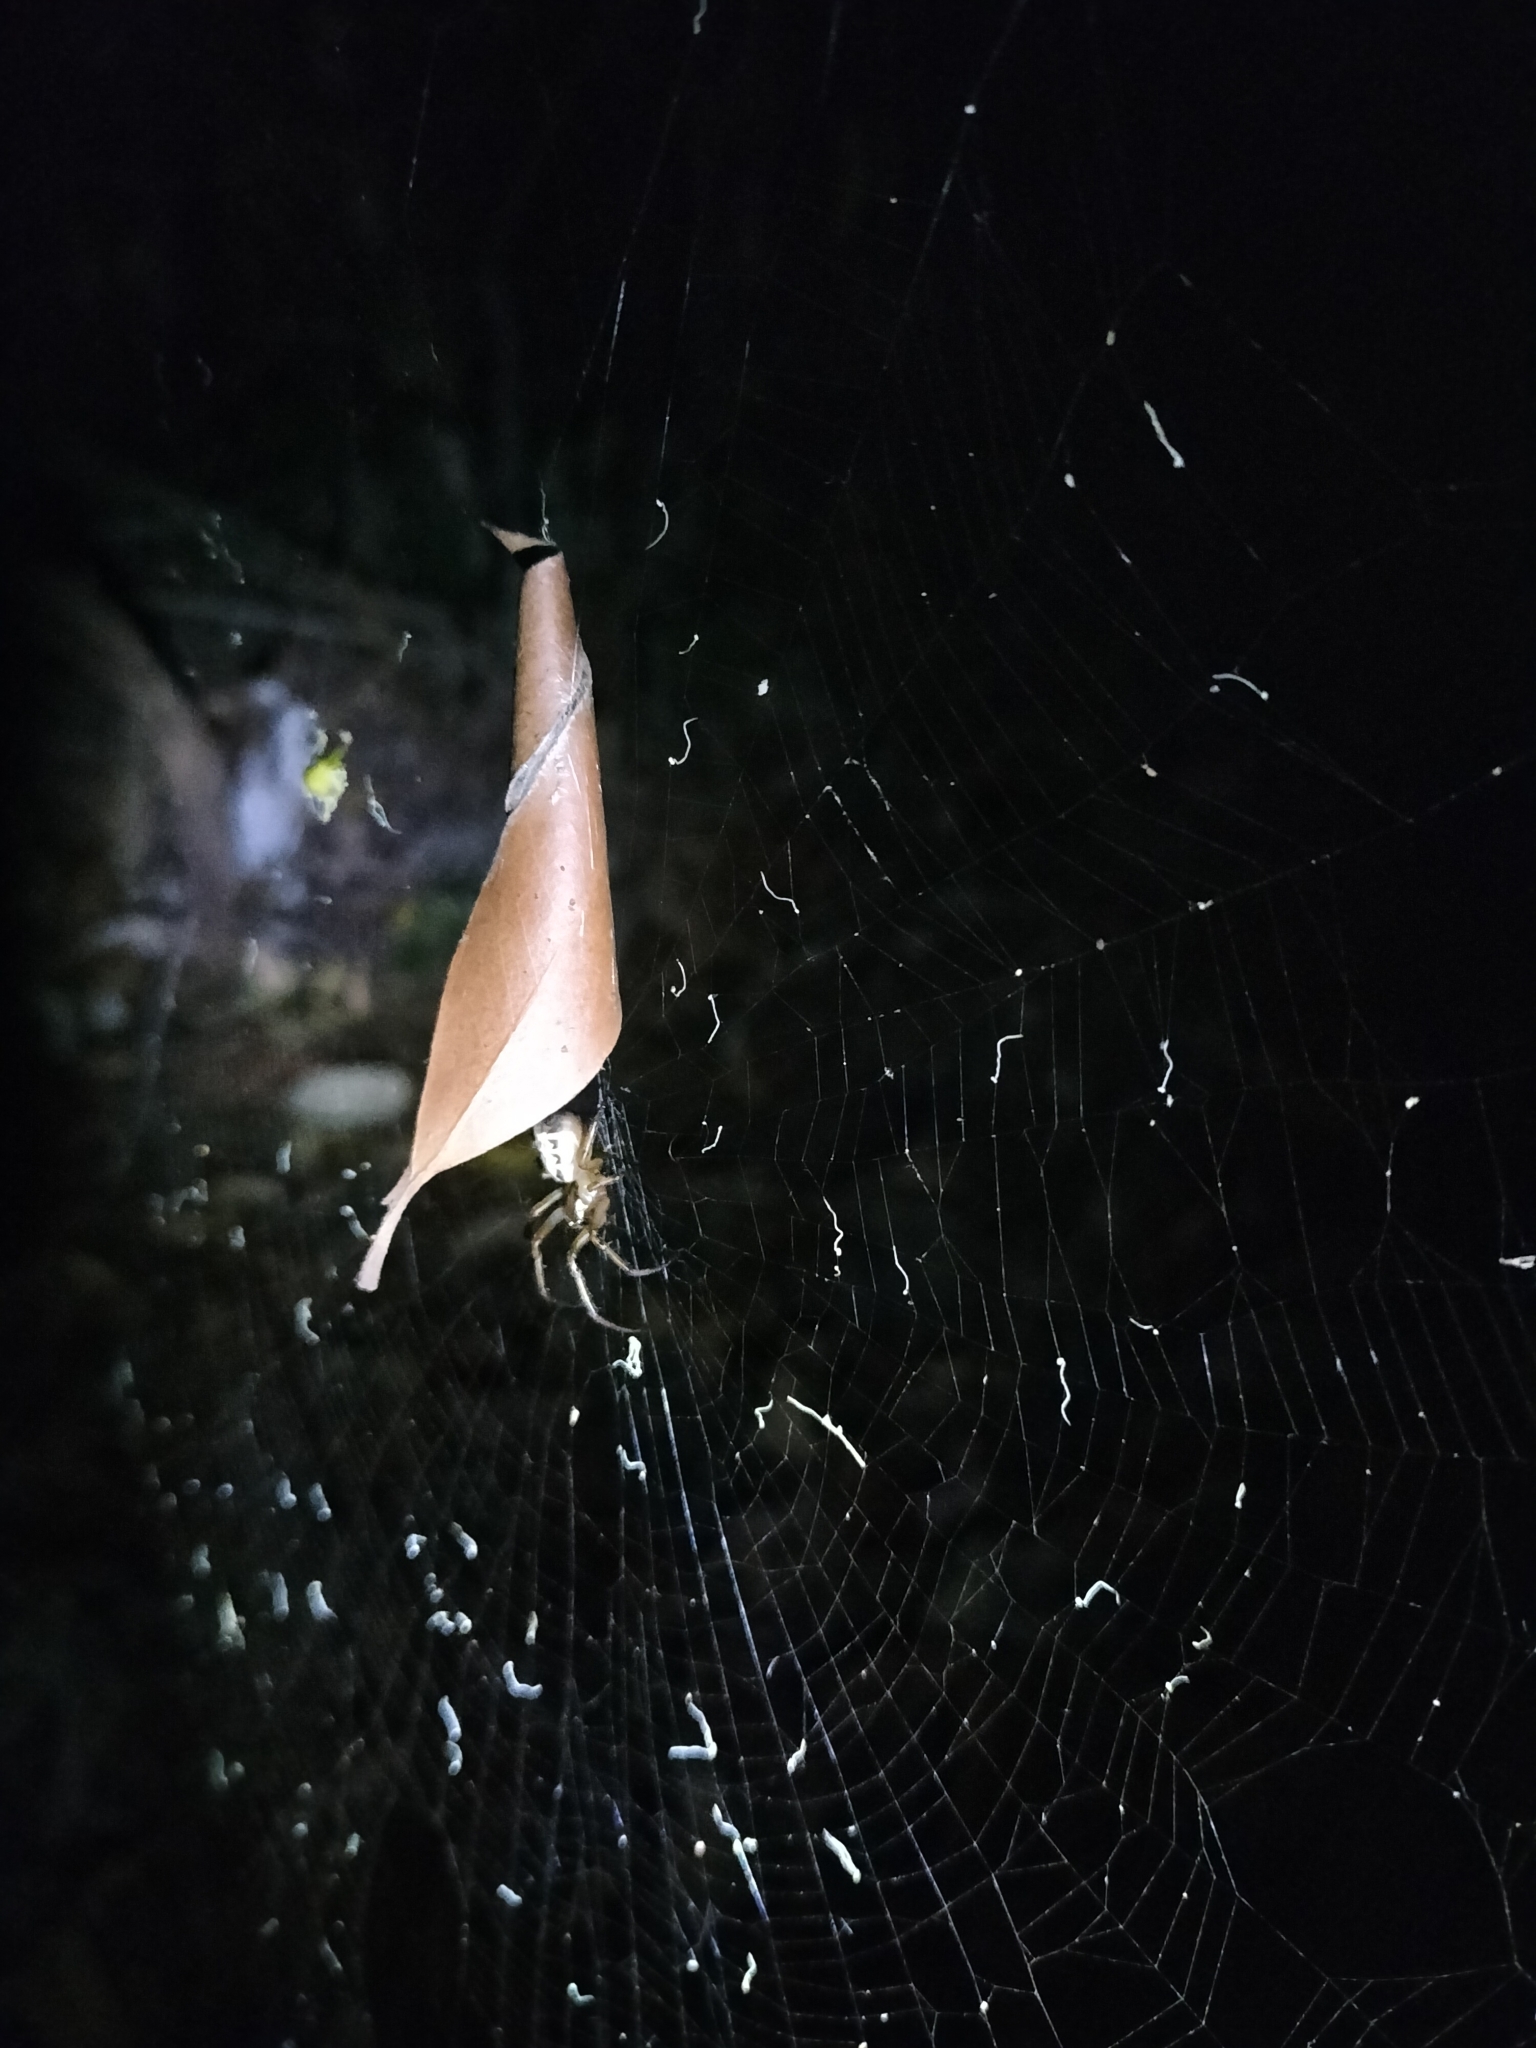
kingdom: Animalia
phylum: Arthropoda
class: Arachnida
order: Araneae
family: Araneidae
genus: Phonognatha
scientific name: Phonognatha graeffei
